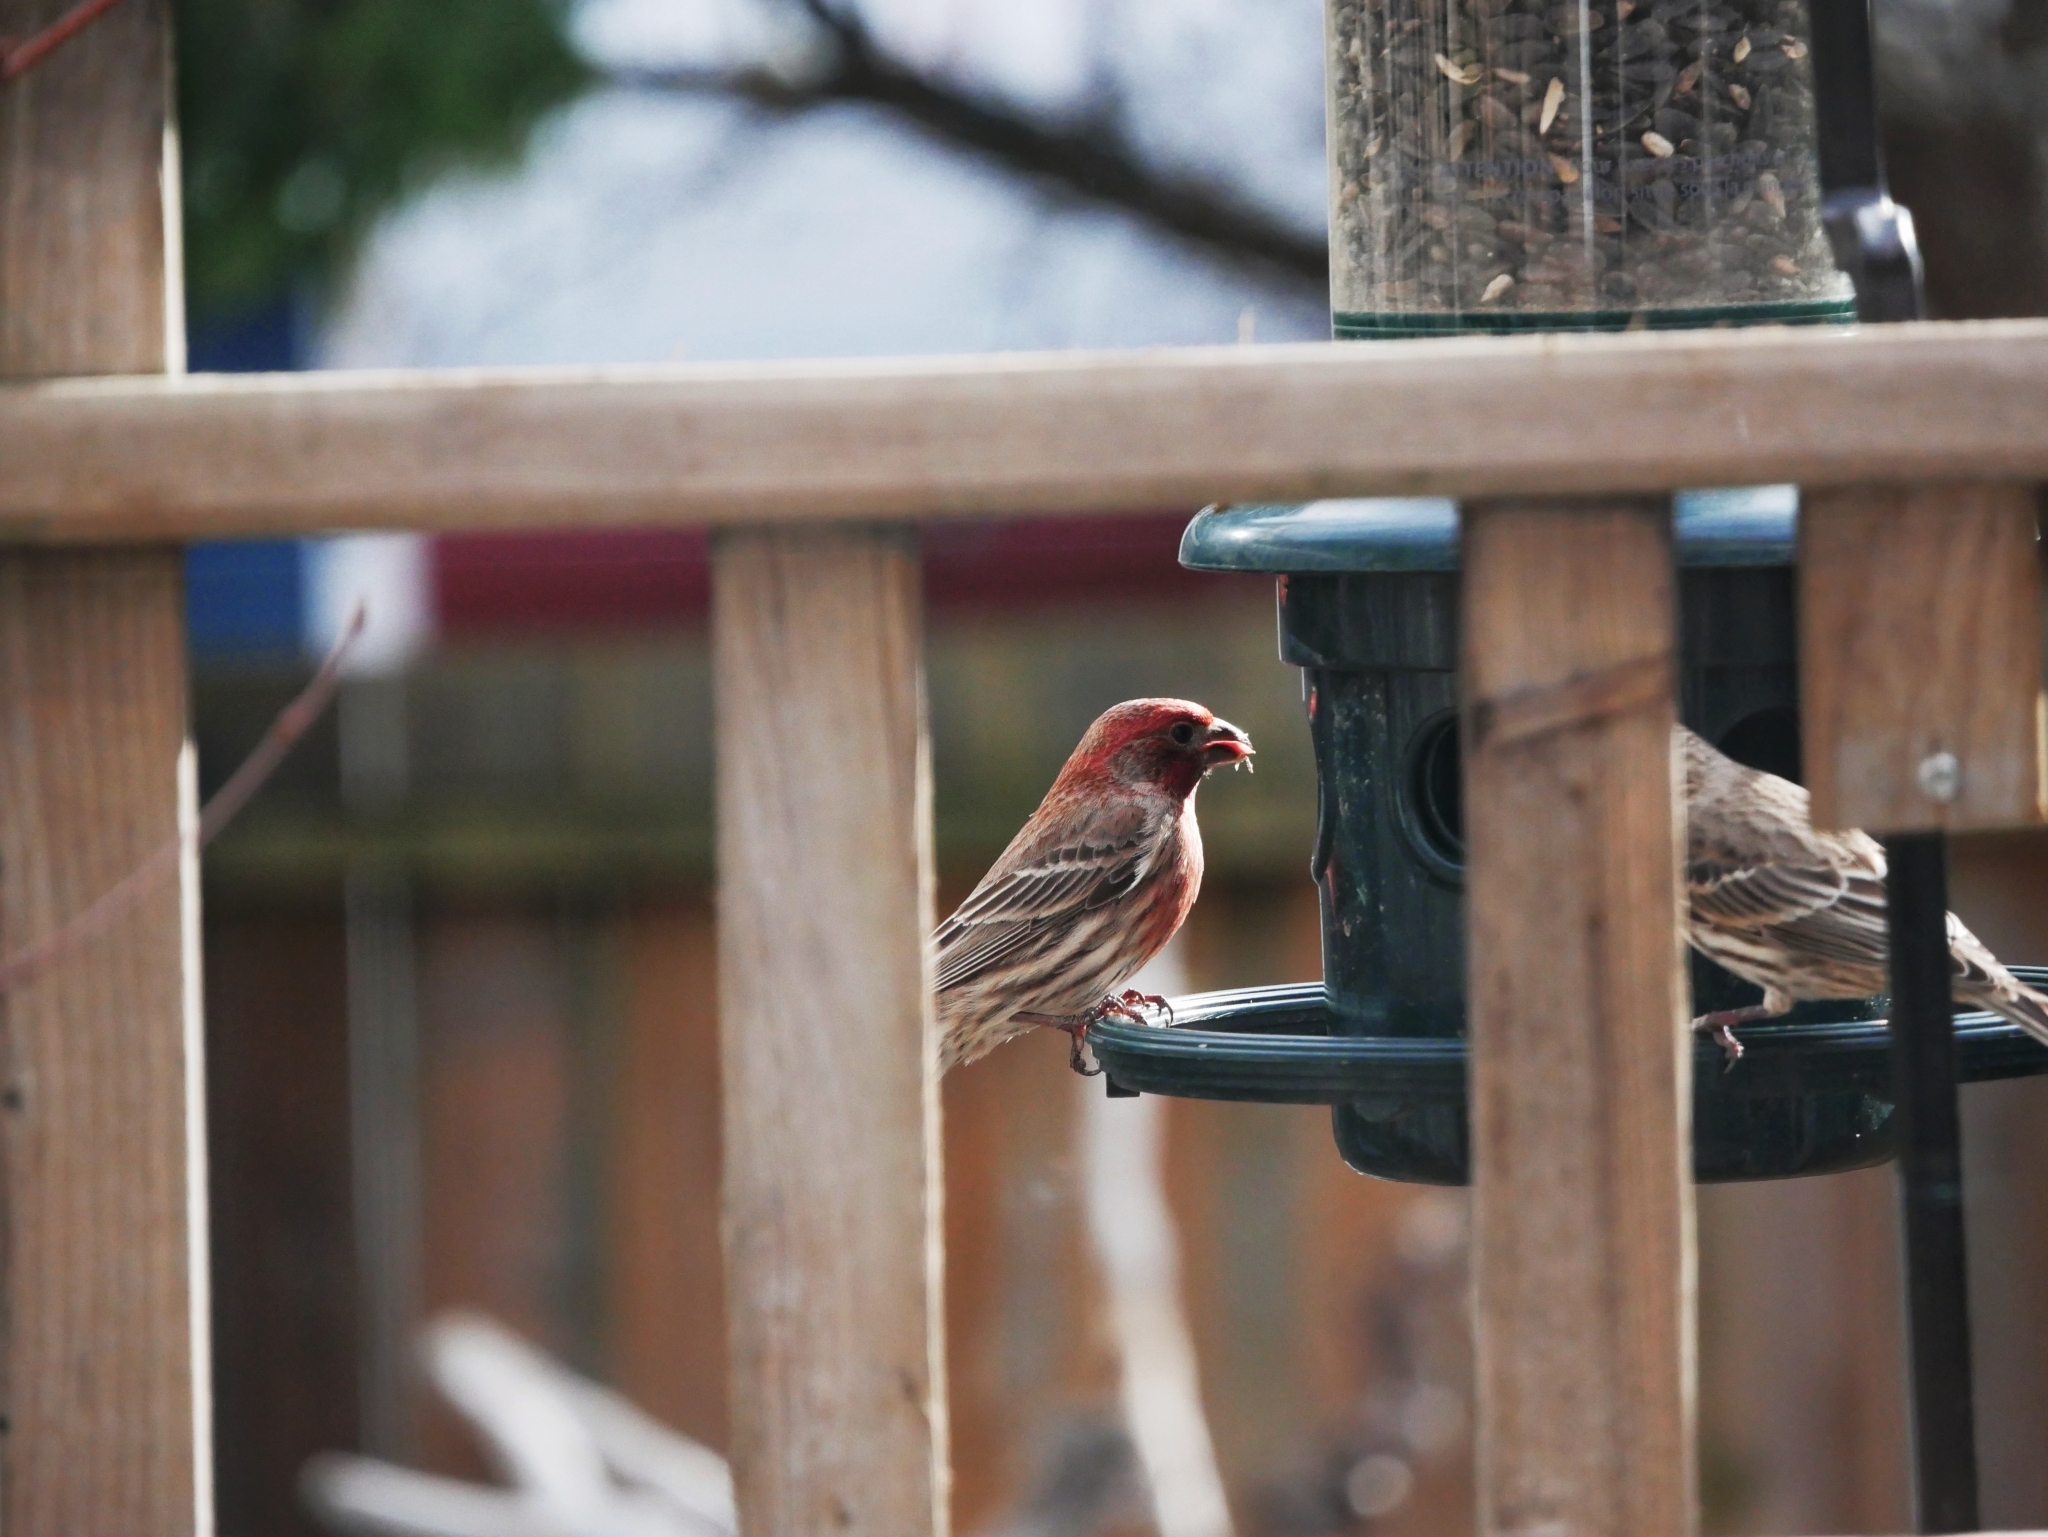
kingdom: Animalia
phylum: Chordata
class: Aves
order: Passeriformes
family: Fringillidae
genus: Haemorhous
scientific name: Haemorhous mexicanus
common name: House finch
